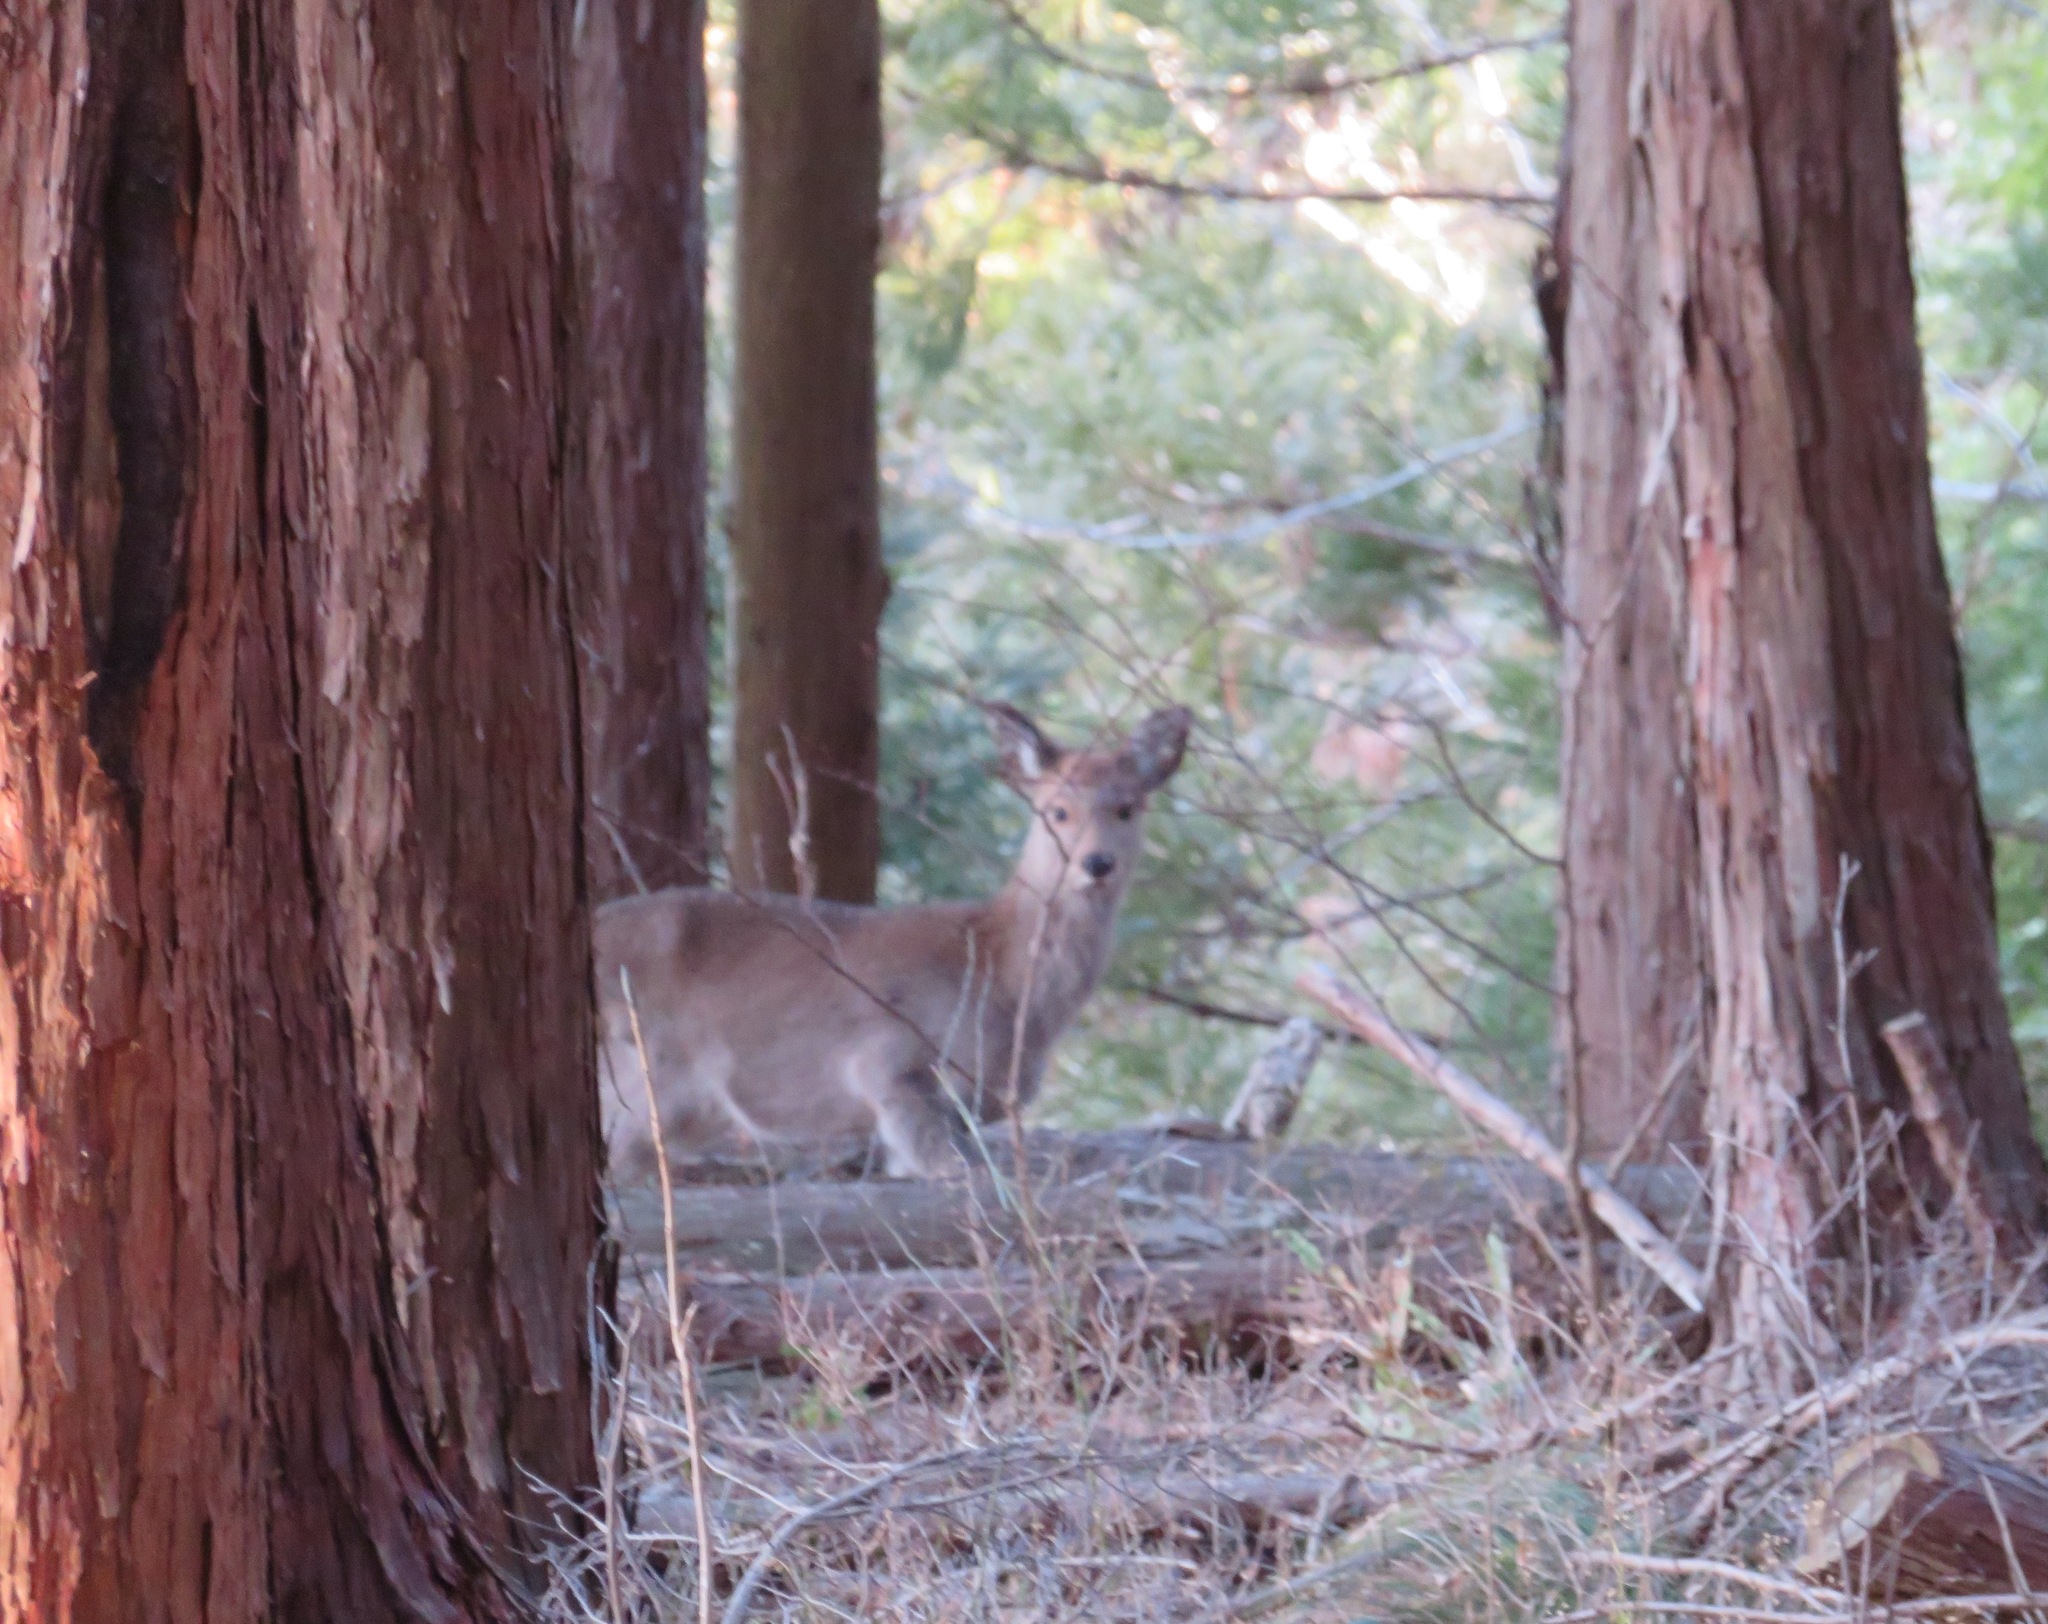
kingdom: Animalia
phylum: Chordata
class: Mammalia
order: Artiodactyla
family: Cervidae
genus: Cervus
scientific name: Cervus nippon
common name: Sika deer
